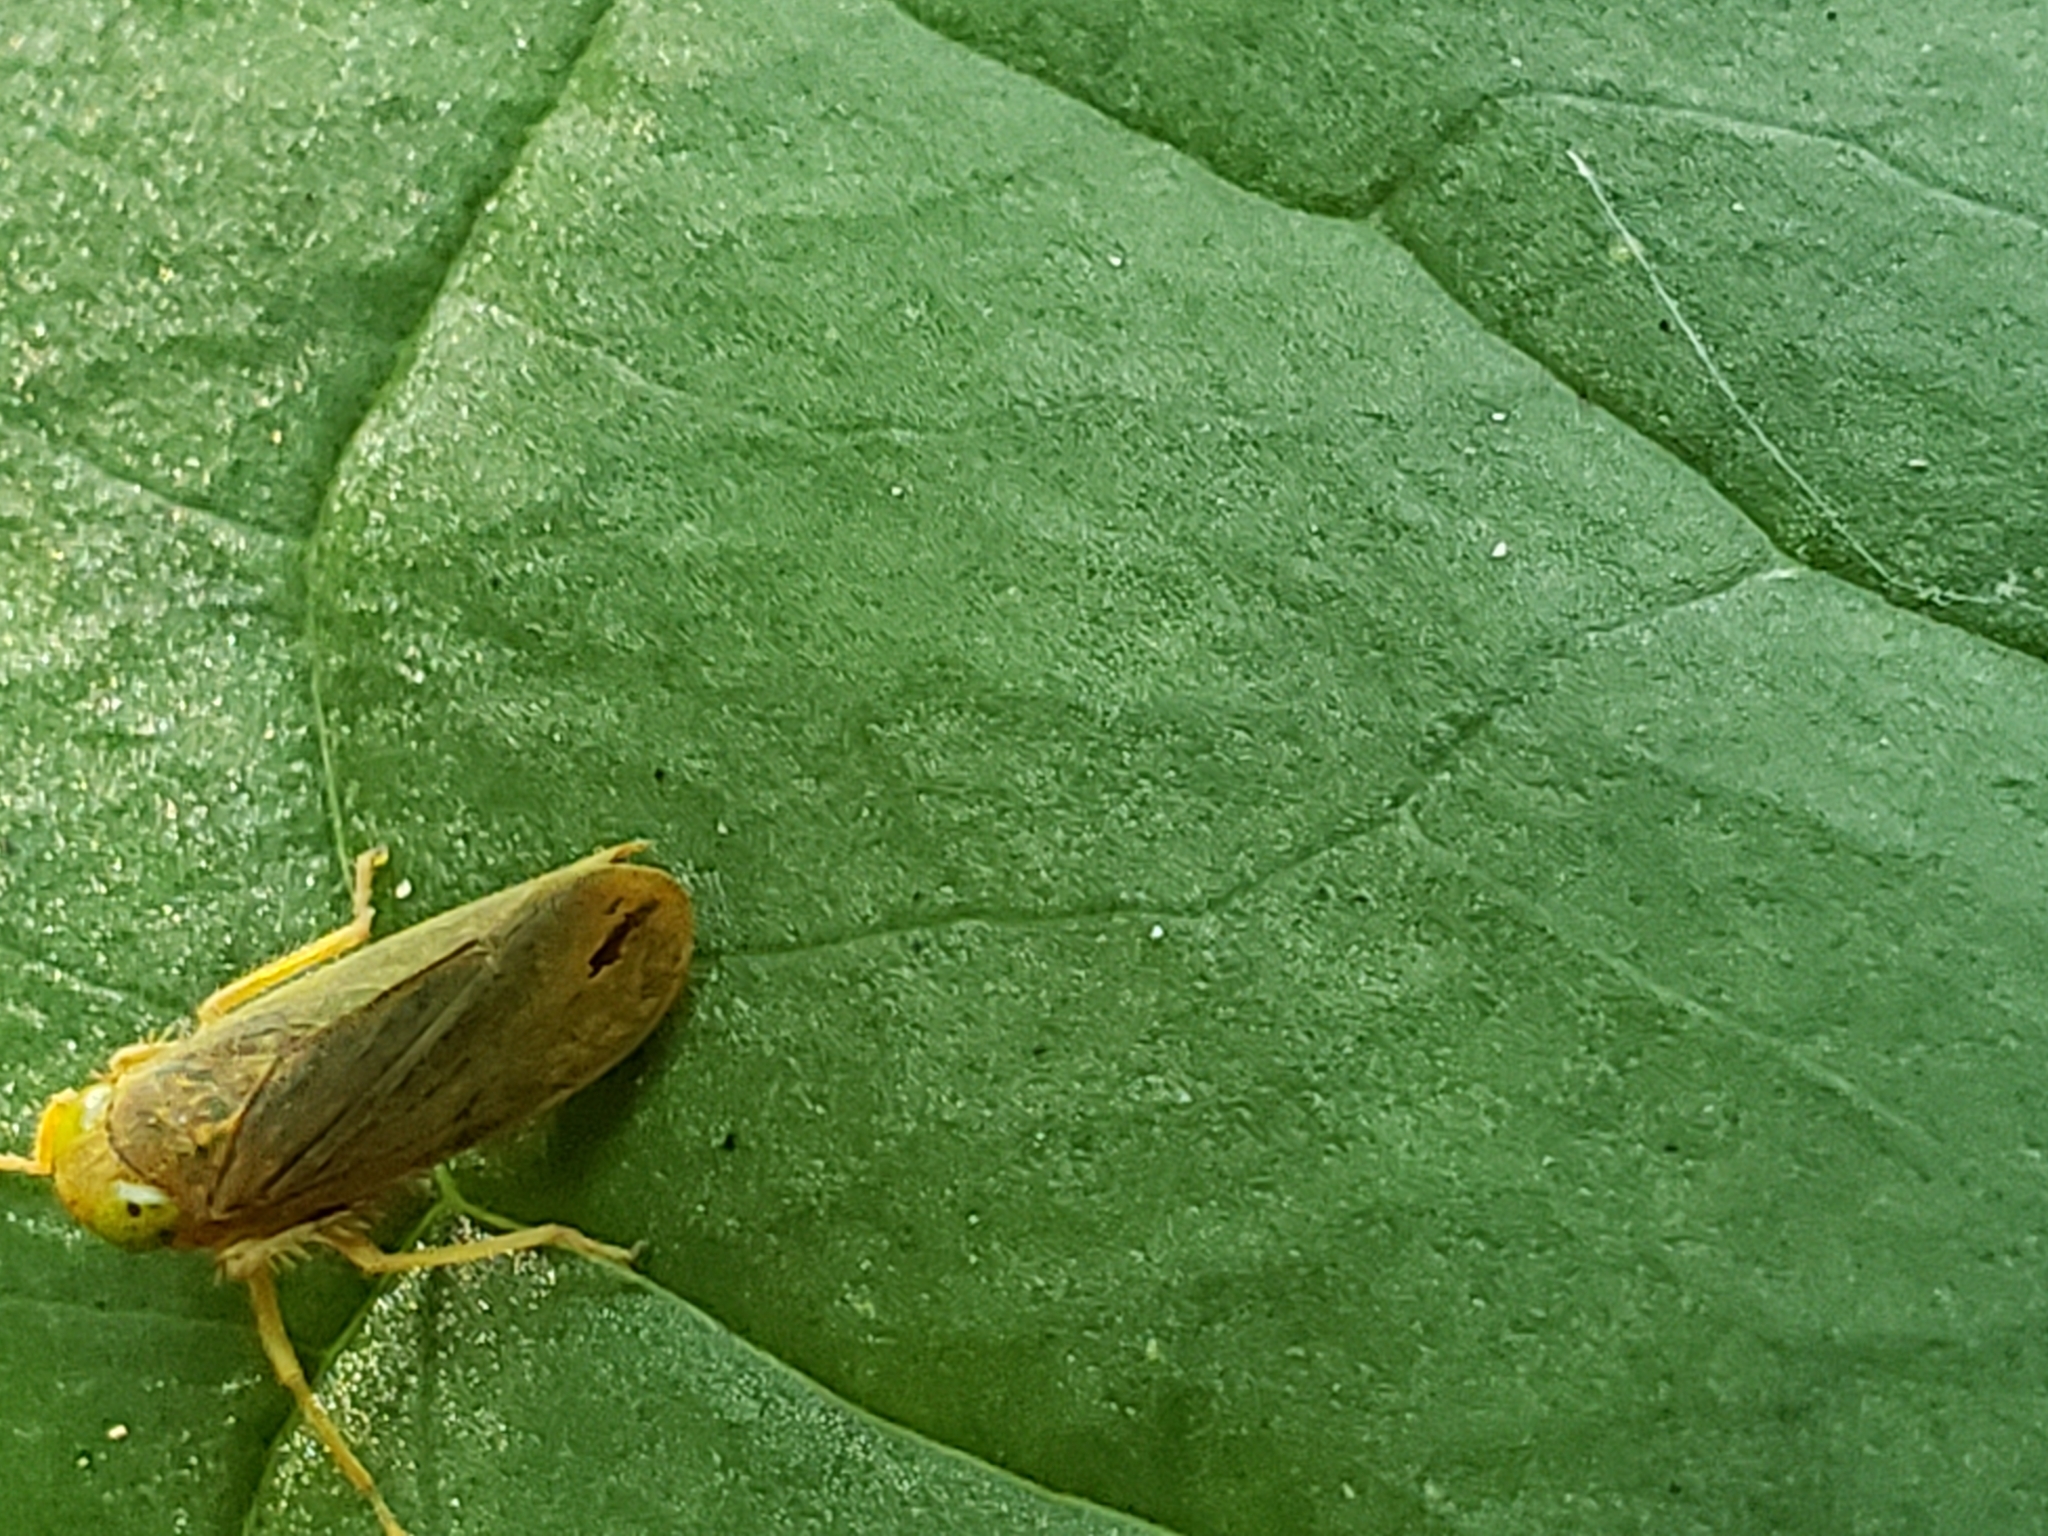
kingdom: Animalia
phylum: Arthropoda
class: Insecta
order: Hemiptera
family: Cicadellidae
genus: Jikradia
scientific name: Jikradia olitoria
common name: Coppery leafhopper
